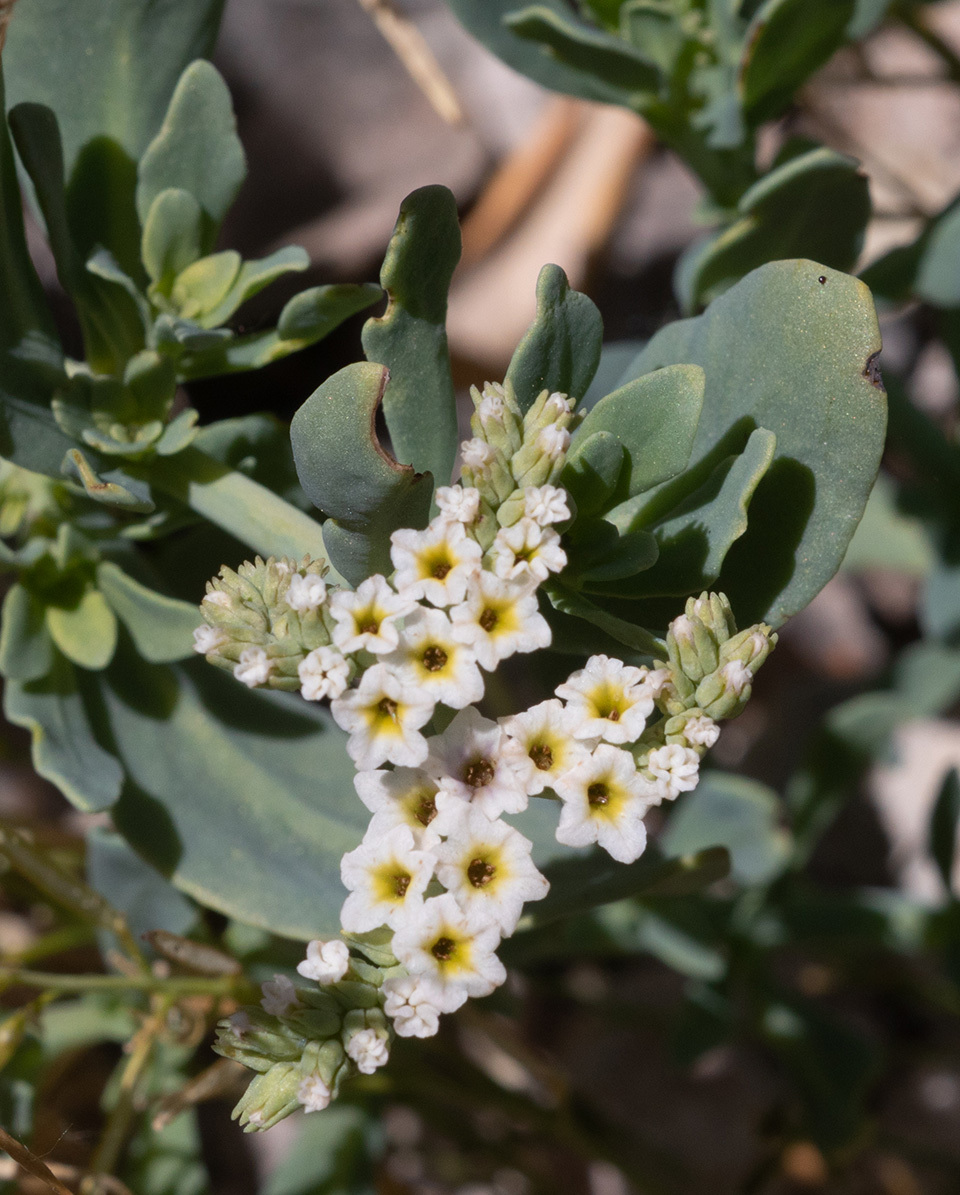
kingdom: Plantae
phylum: Tracheophyta
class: Magnoliopsida
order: Boraginales
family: Heliotropiaceae
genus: Heliotropium
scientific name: Heliotropium curassavicum
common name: Seaside heliotrope
